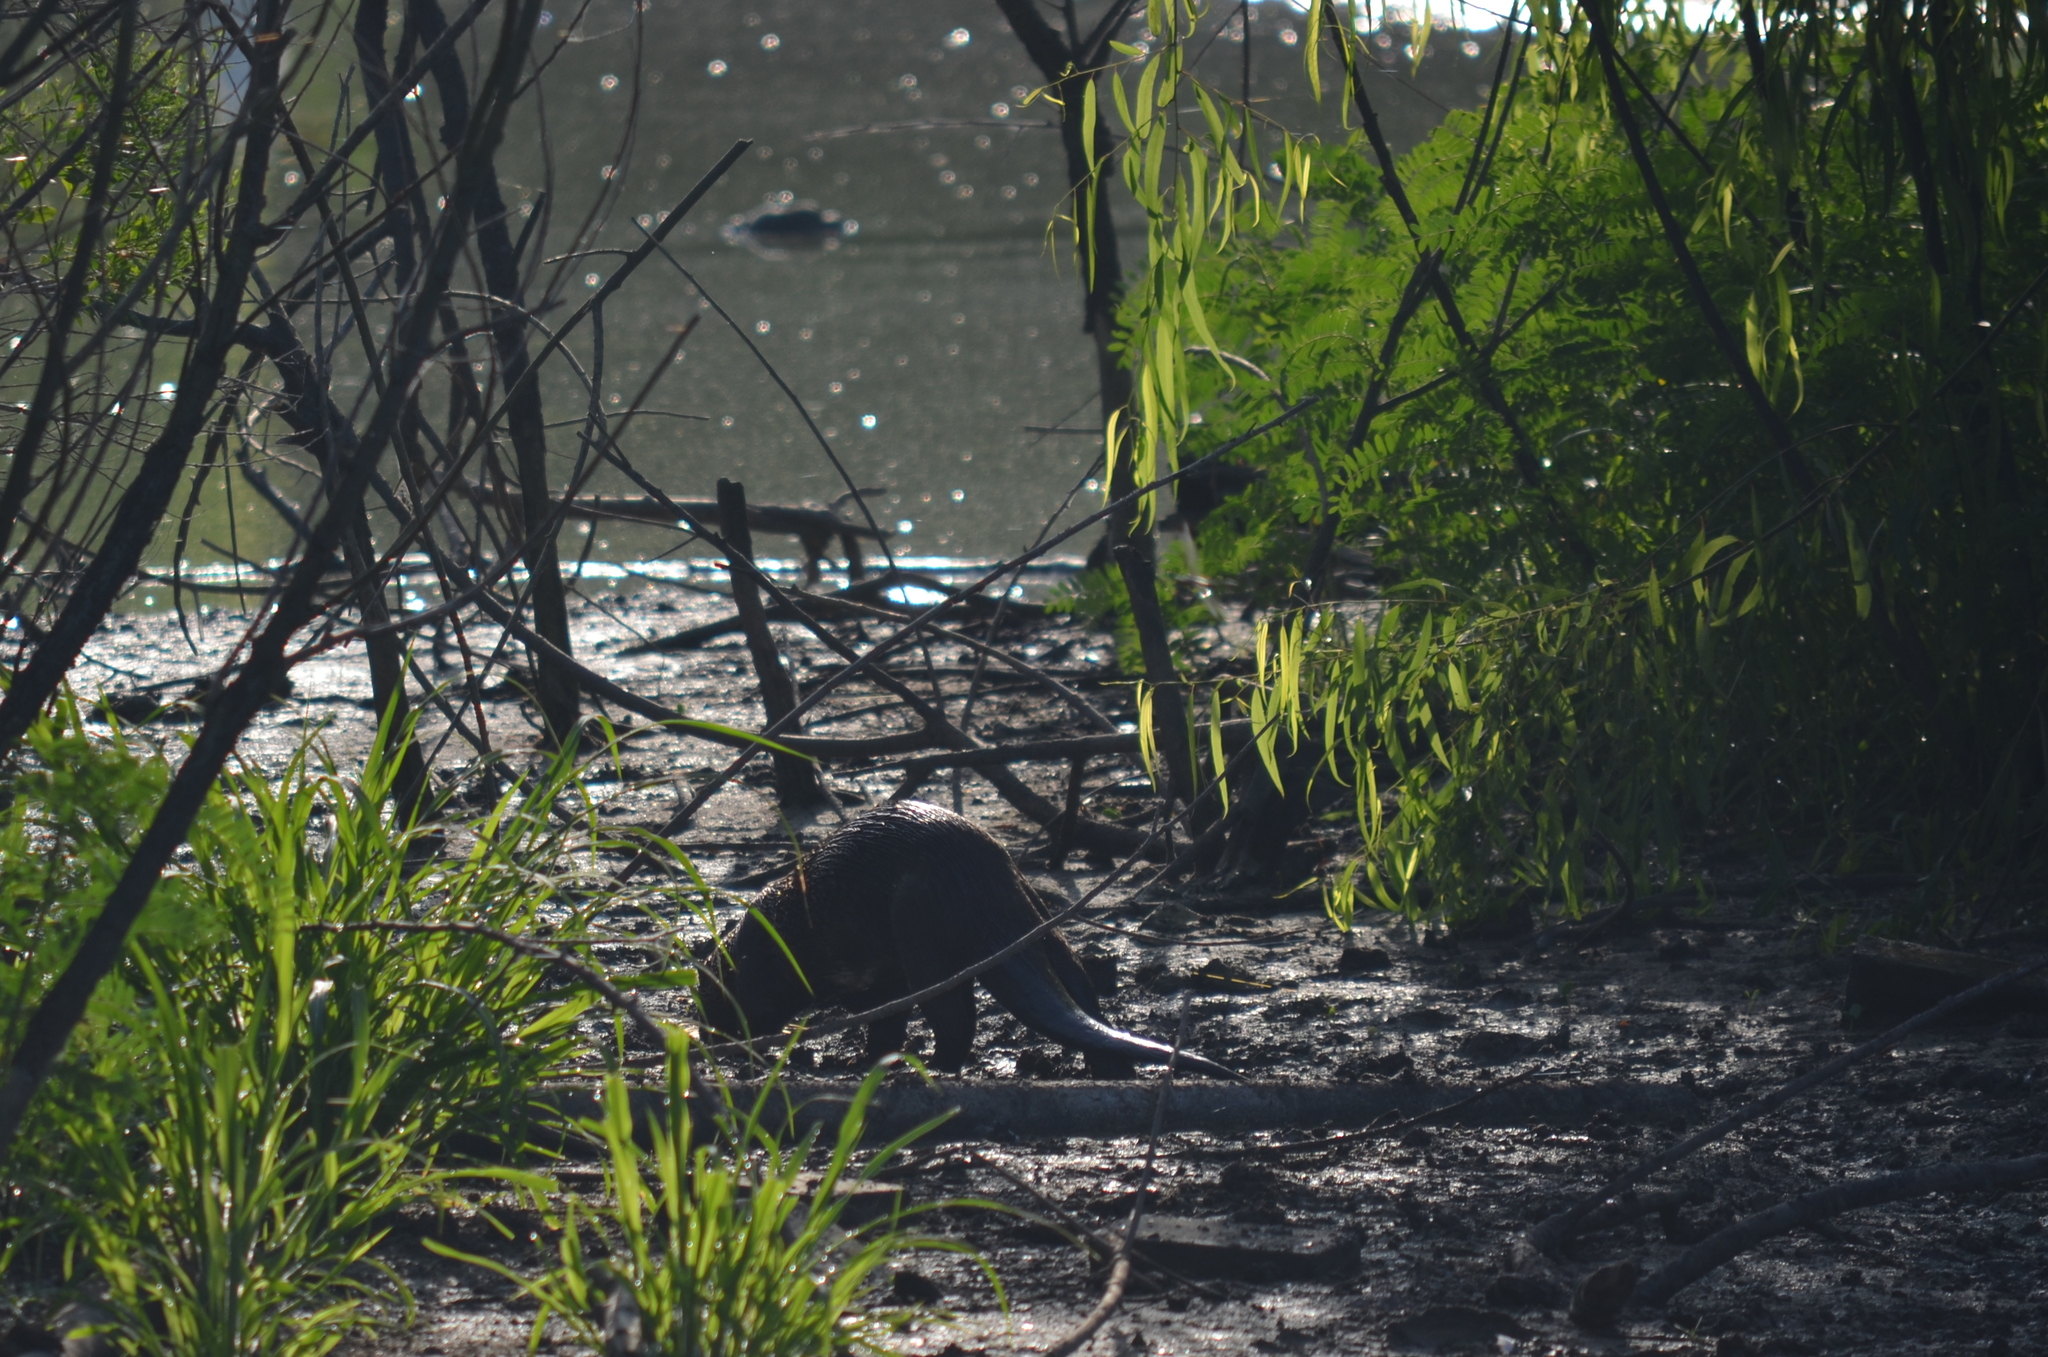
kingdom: Animalia
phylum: Chordata
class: Mammalia
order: Carnivora
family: Mustelidae
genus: Lontra
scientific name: Lontra canadensis
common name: North american river otter
